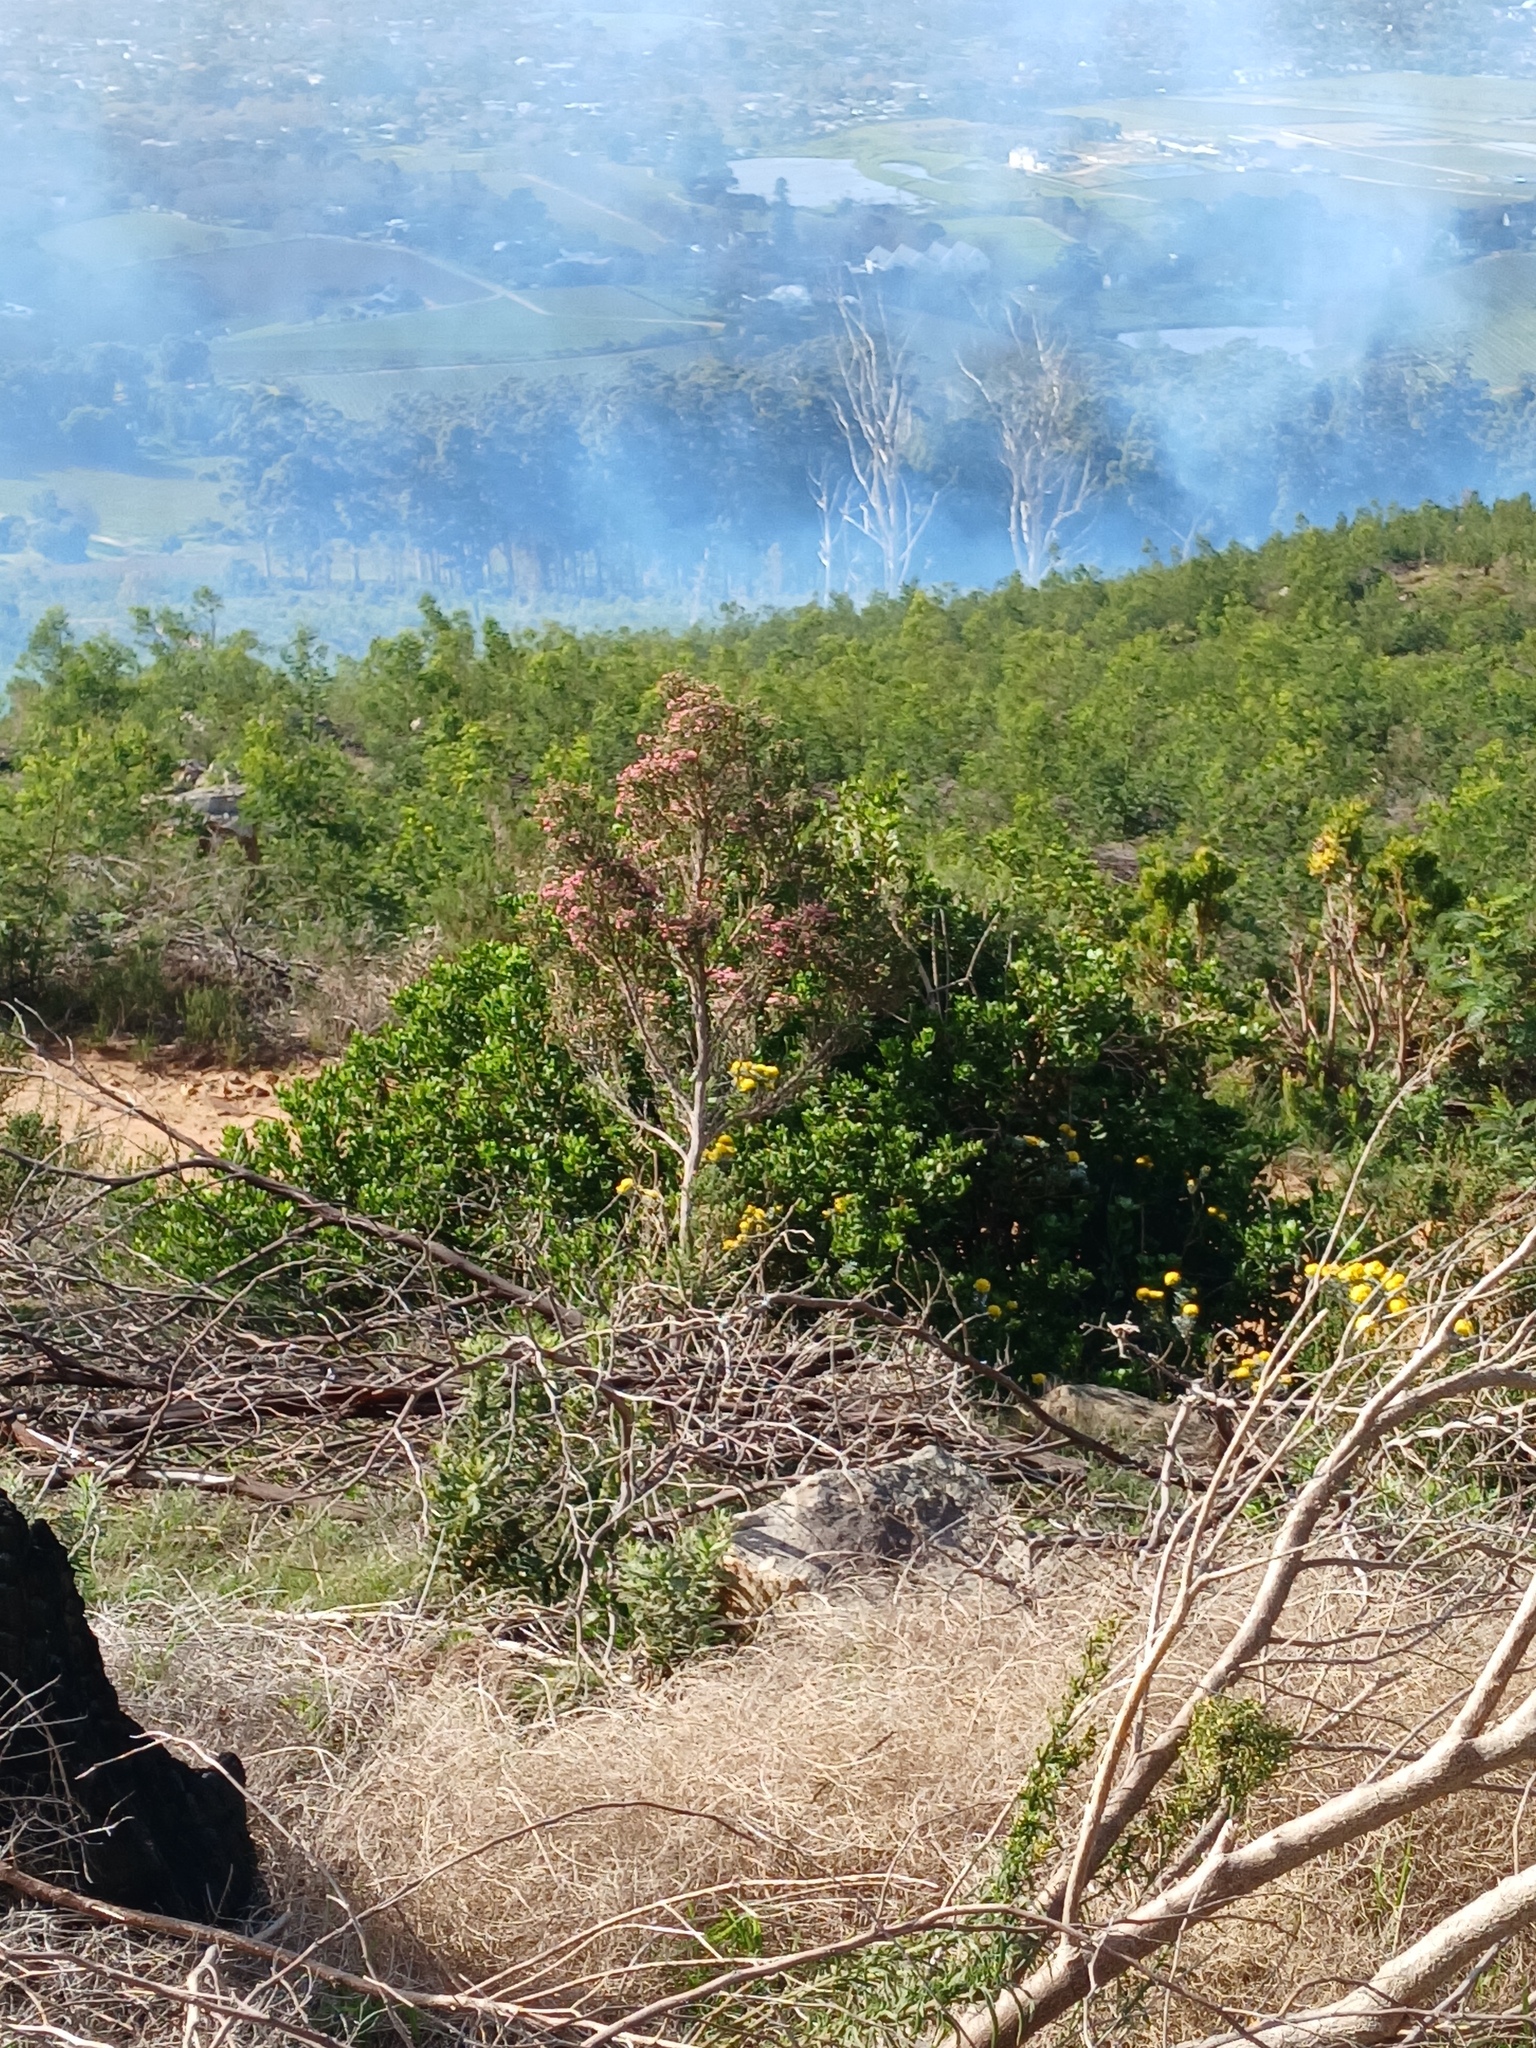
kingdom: Plantae
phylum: Tracheophyta
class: Magnoliopsida
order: Ericales
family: Ericaceae
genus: Erica
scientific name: Erica baccans
